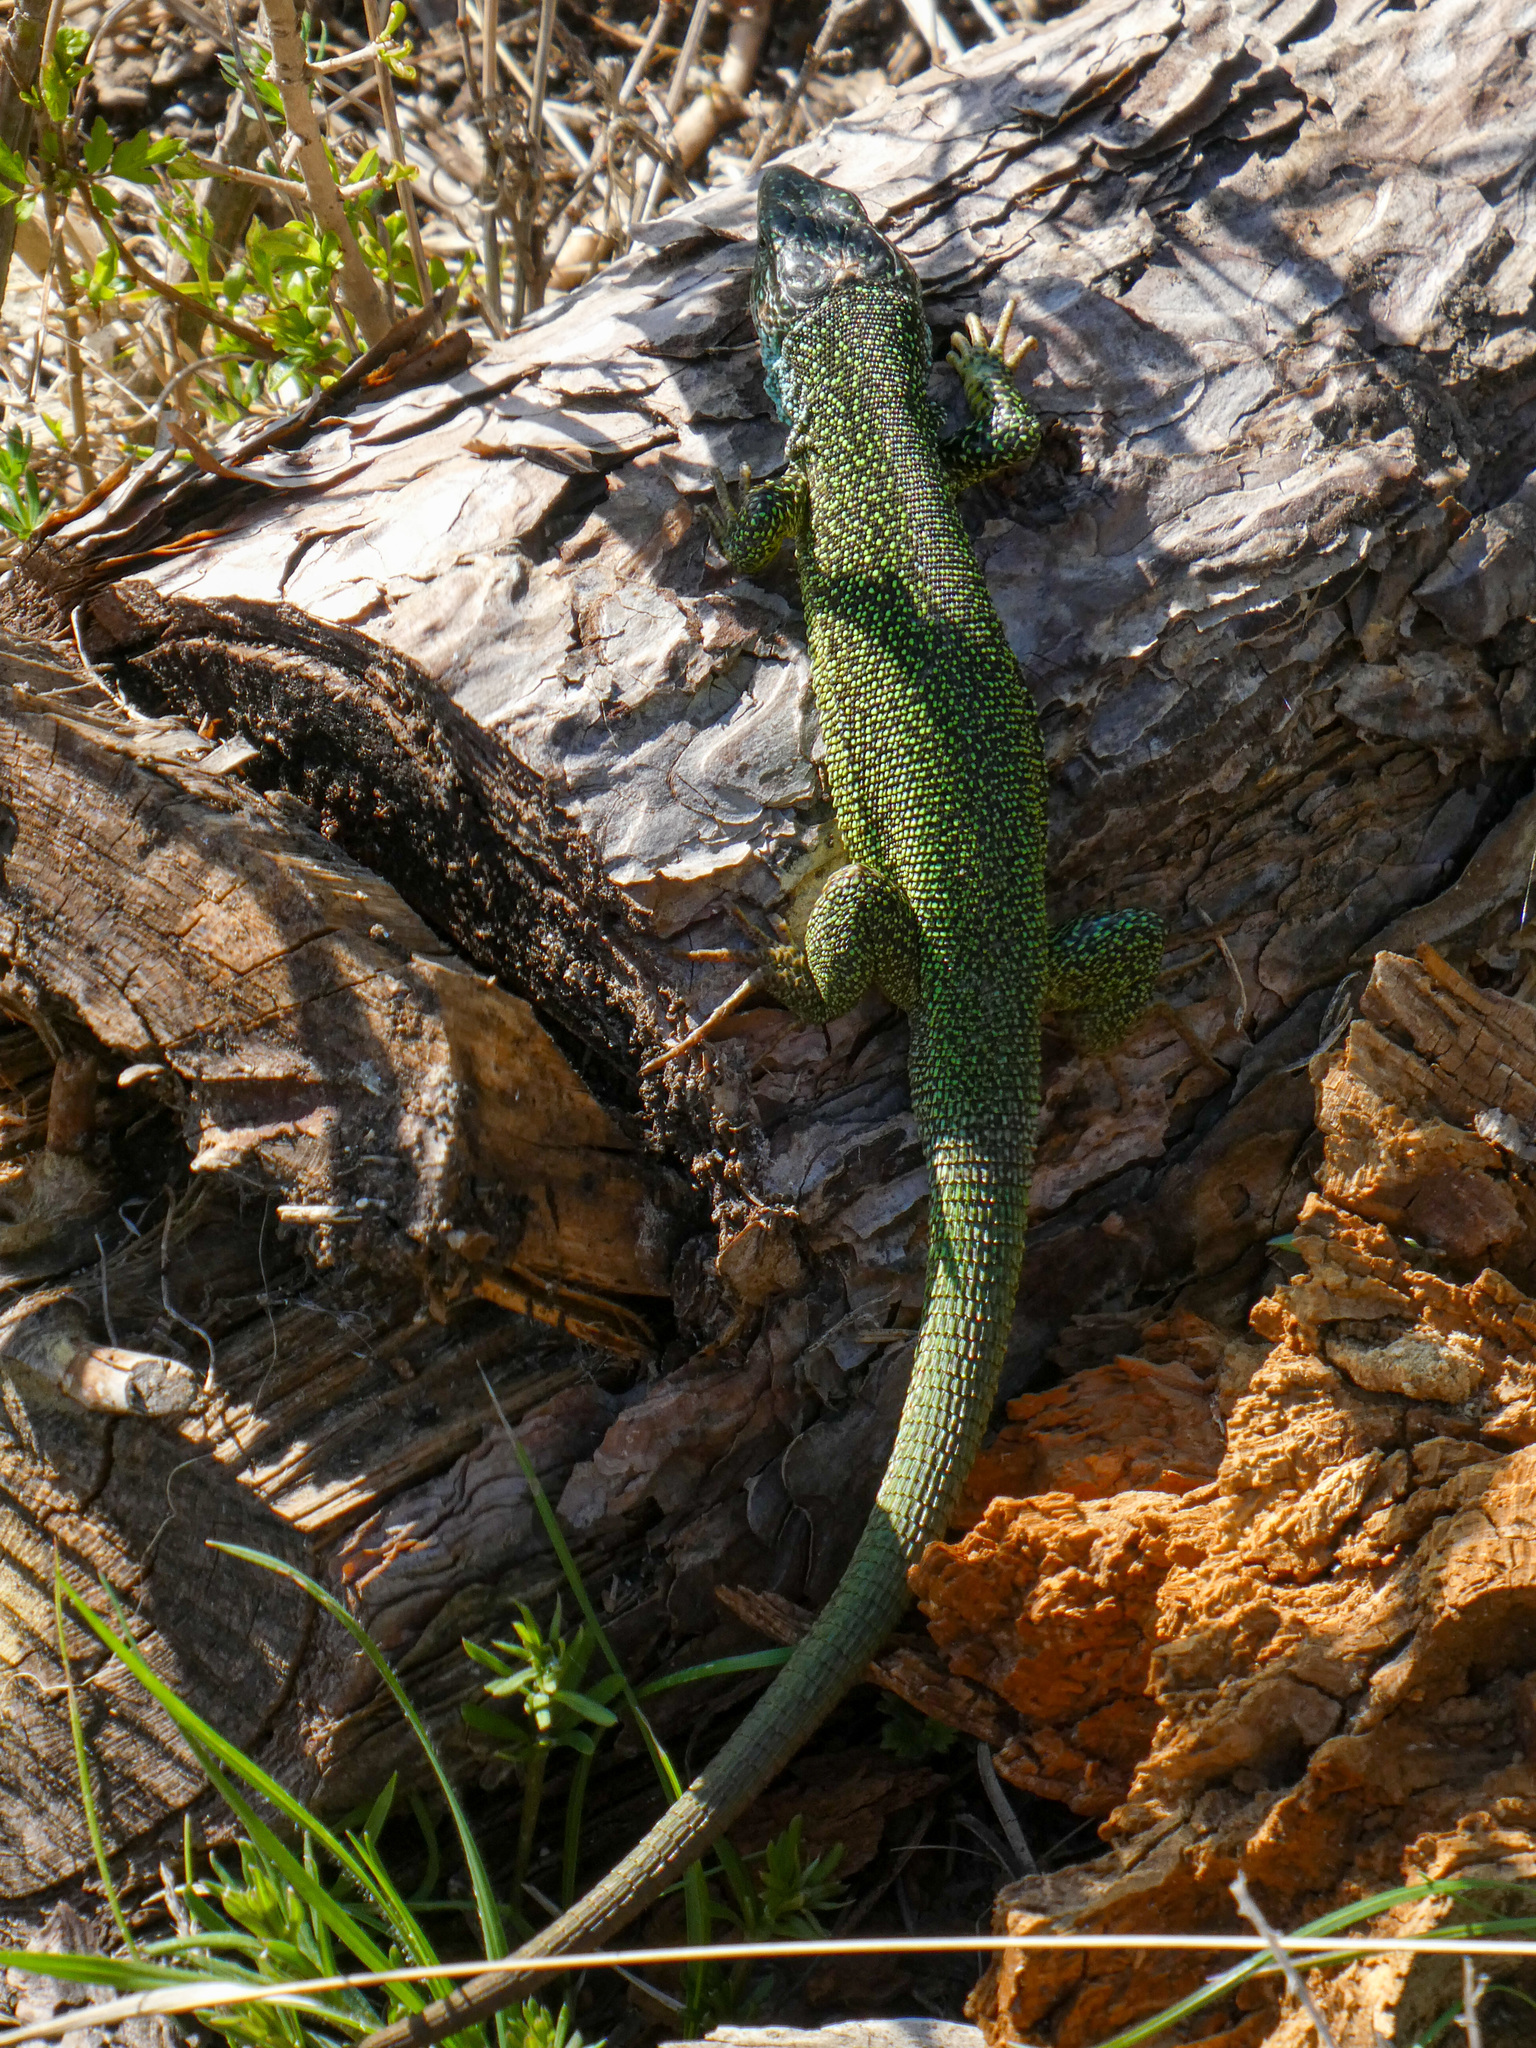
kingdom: Animalia
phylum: Chordata
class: Squamata
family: Lacertidae
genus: Lacerta
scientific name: Lacerta viridis
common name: European green lizard
